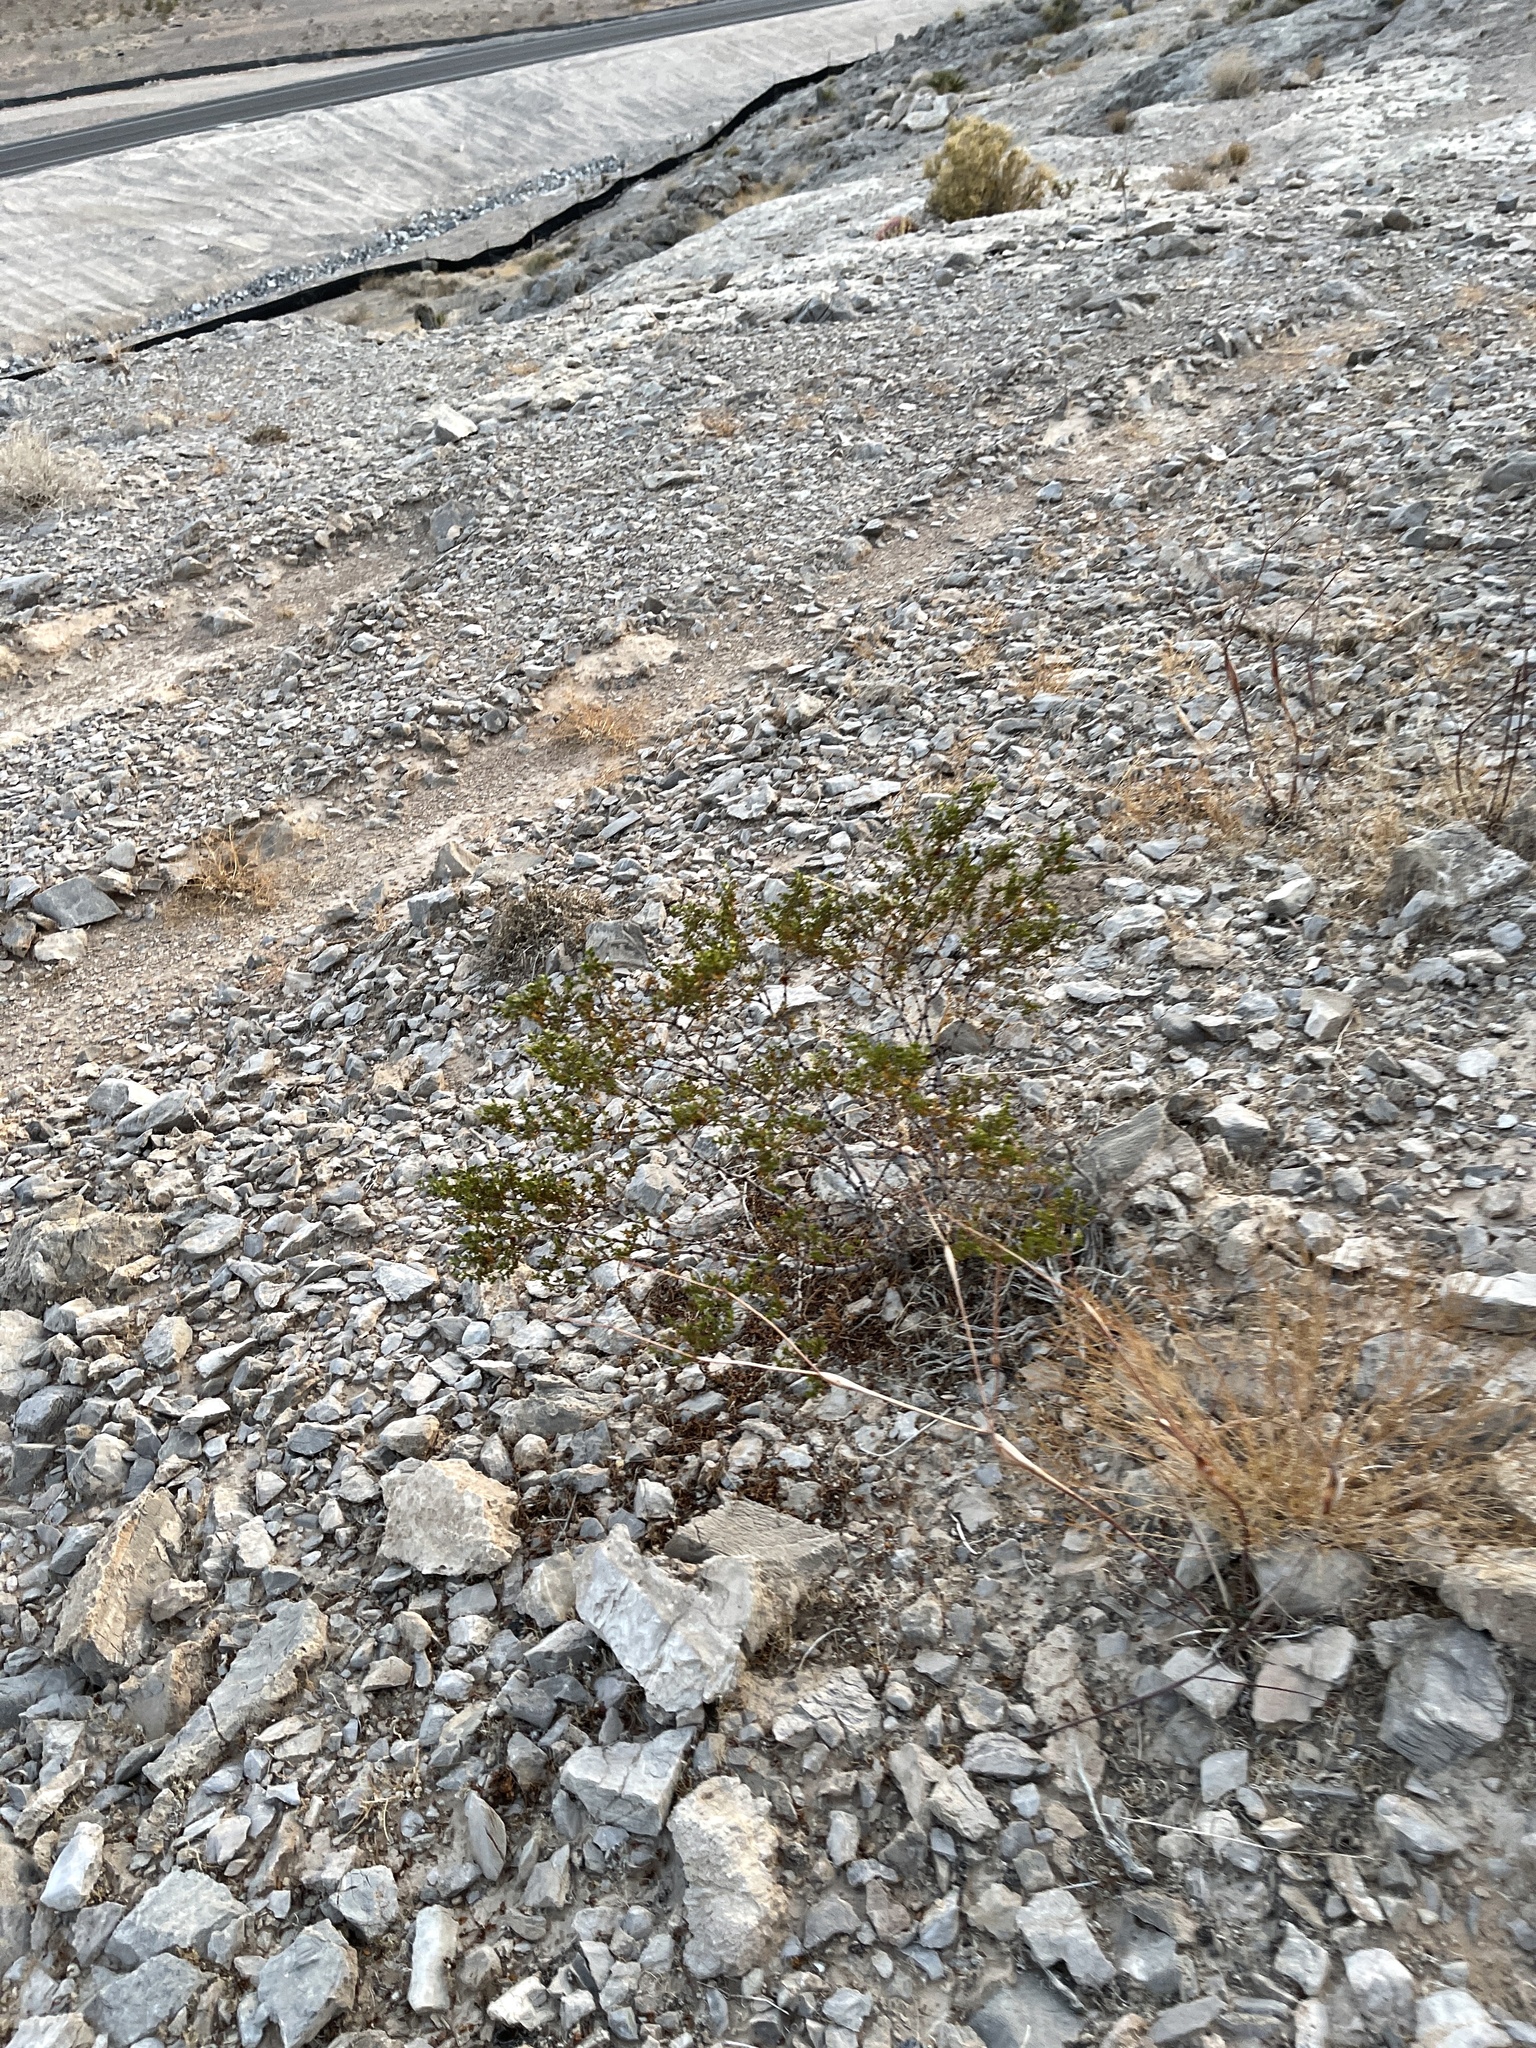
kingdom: Plantae
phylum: Tracheophyta
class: Magnoliopsida
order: Zygophyllales
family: Zygophyllaceae
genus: Larrea
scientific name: Larrea tridentata
